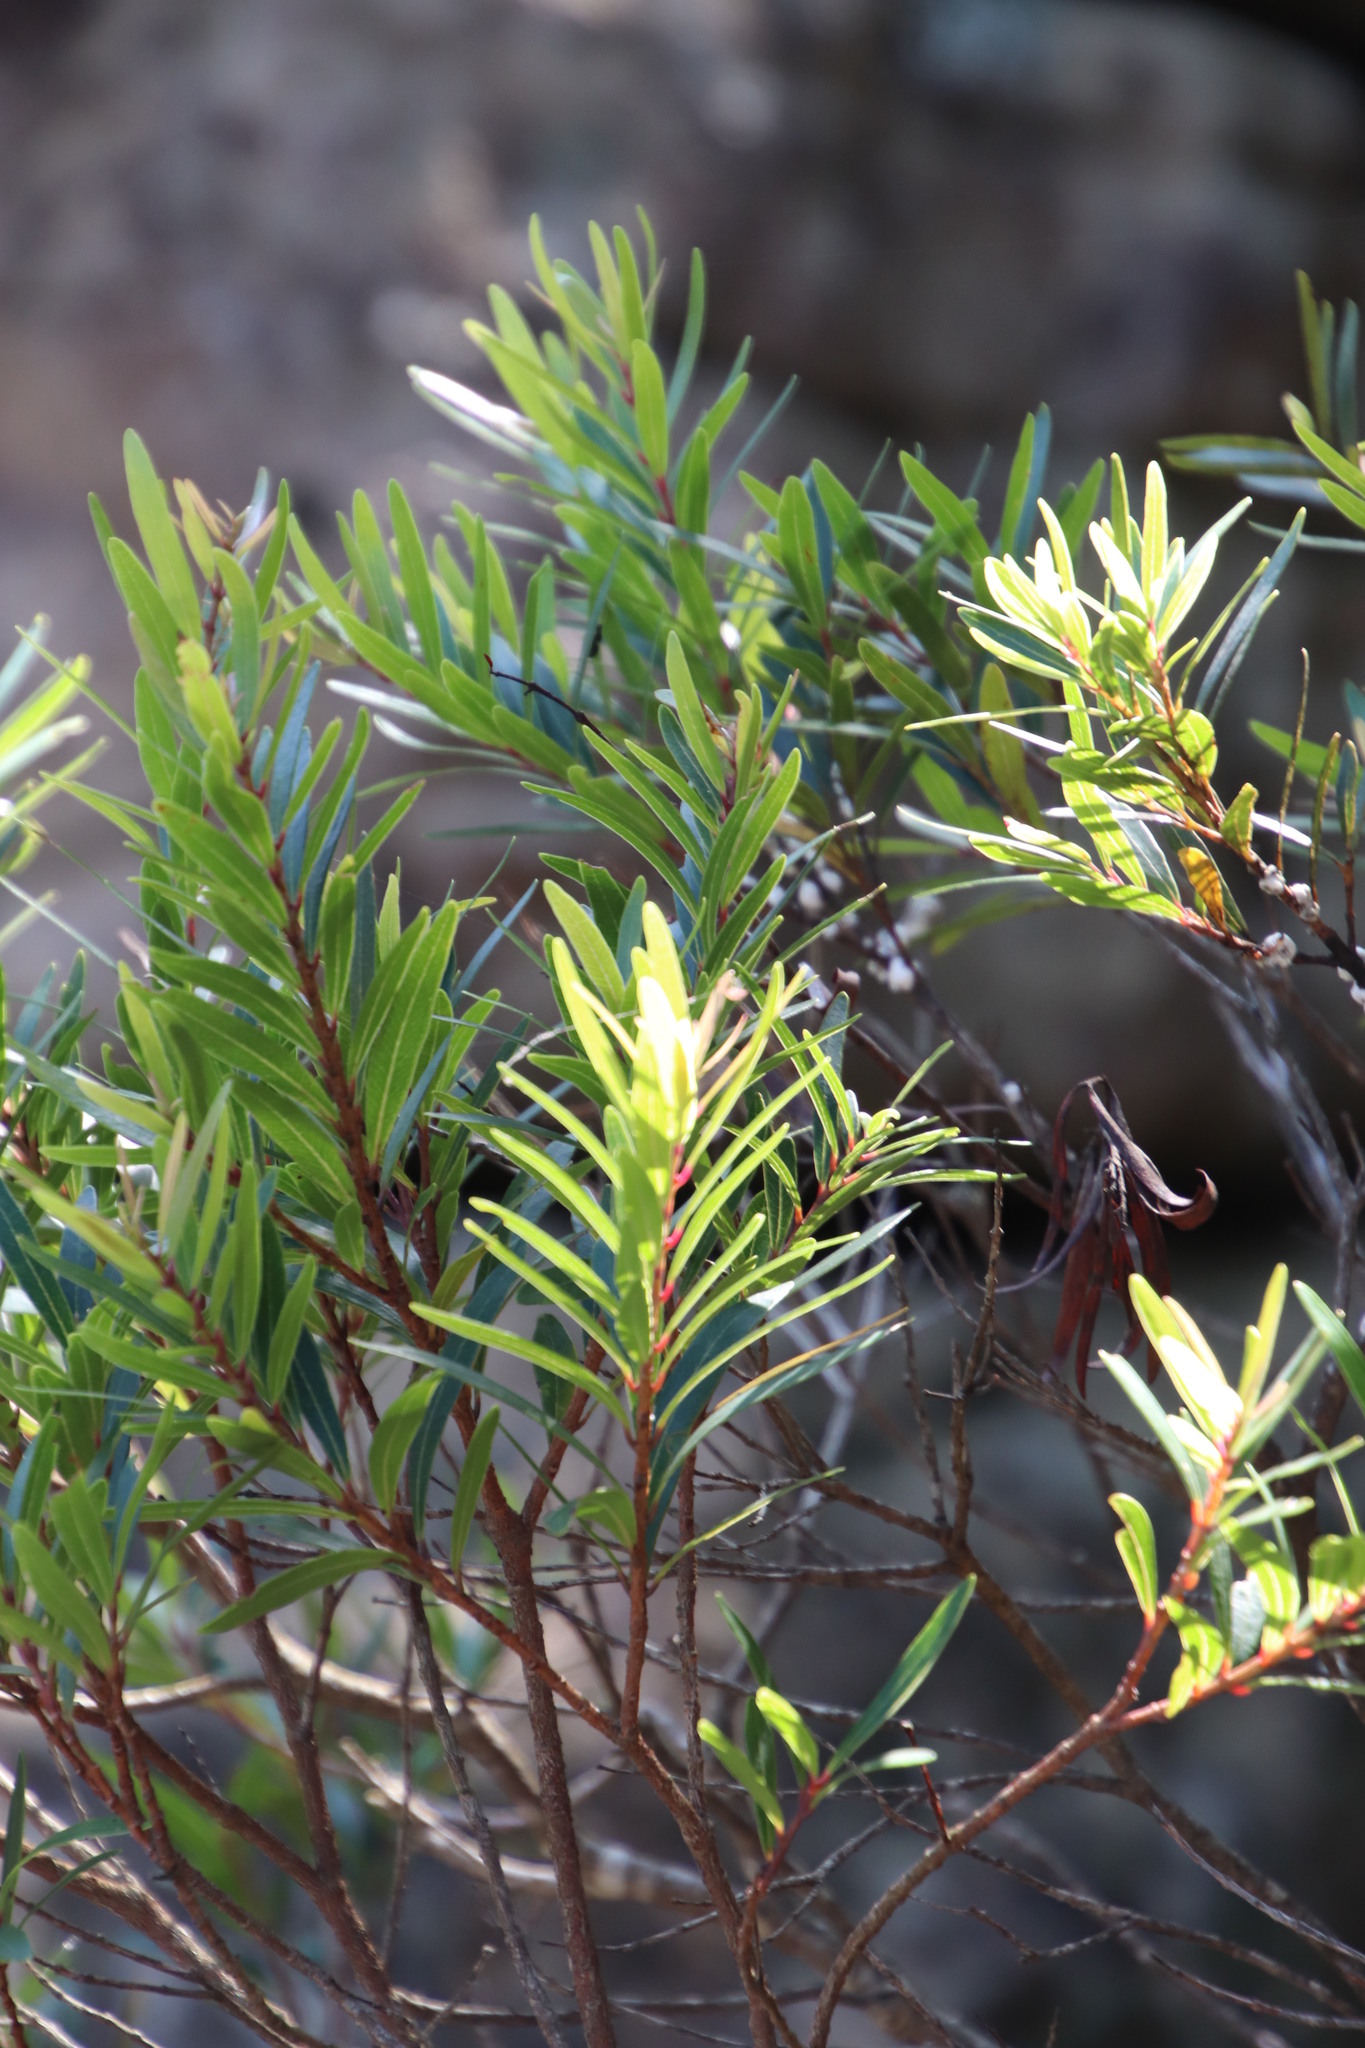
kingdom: Plantae
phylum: Tracheophyta
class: Magnoliopsida
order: Myrtales
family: Myrtaceae
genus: Syzygium
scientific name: Syzygium pondoense
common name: Pondo waterberry
